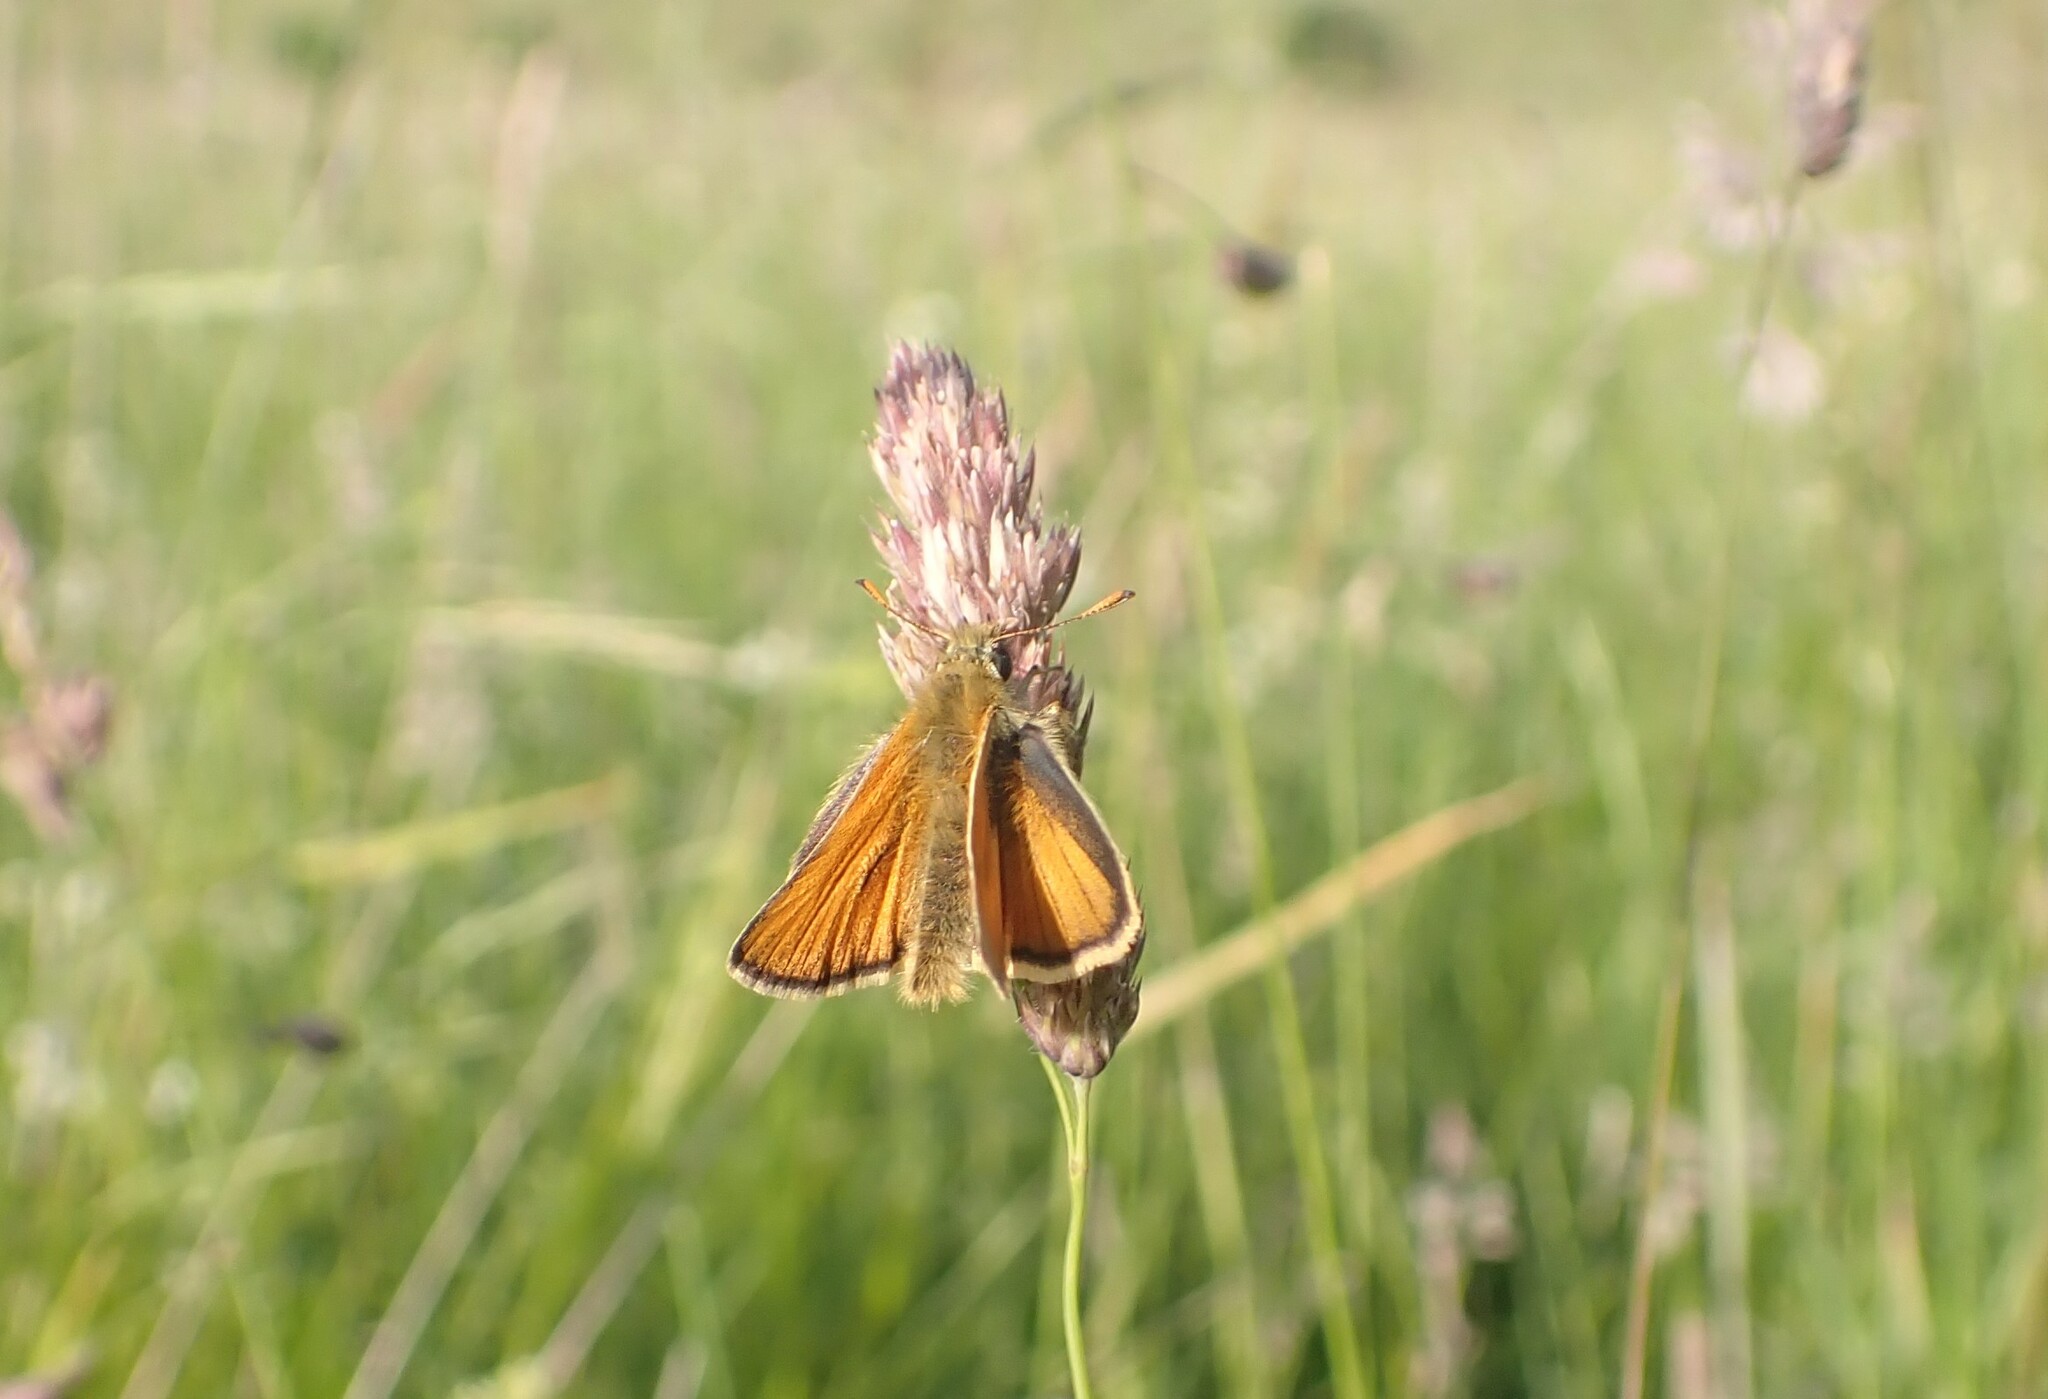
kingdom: Animalia
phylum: Arthropoda
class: Insecta
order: Lepidoptera
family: Hesperiidae
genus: Thymelicus
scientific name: Thymelicus sylvestris
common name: Small skipper
